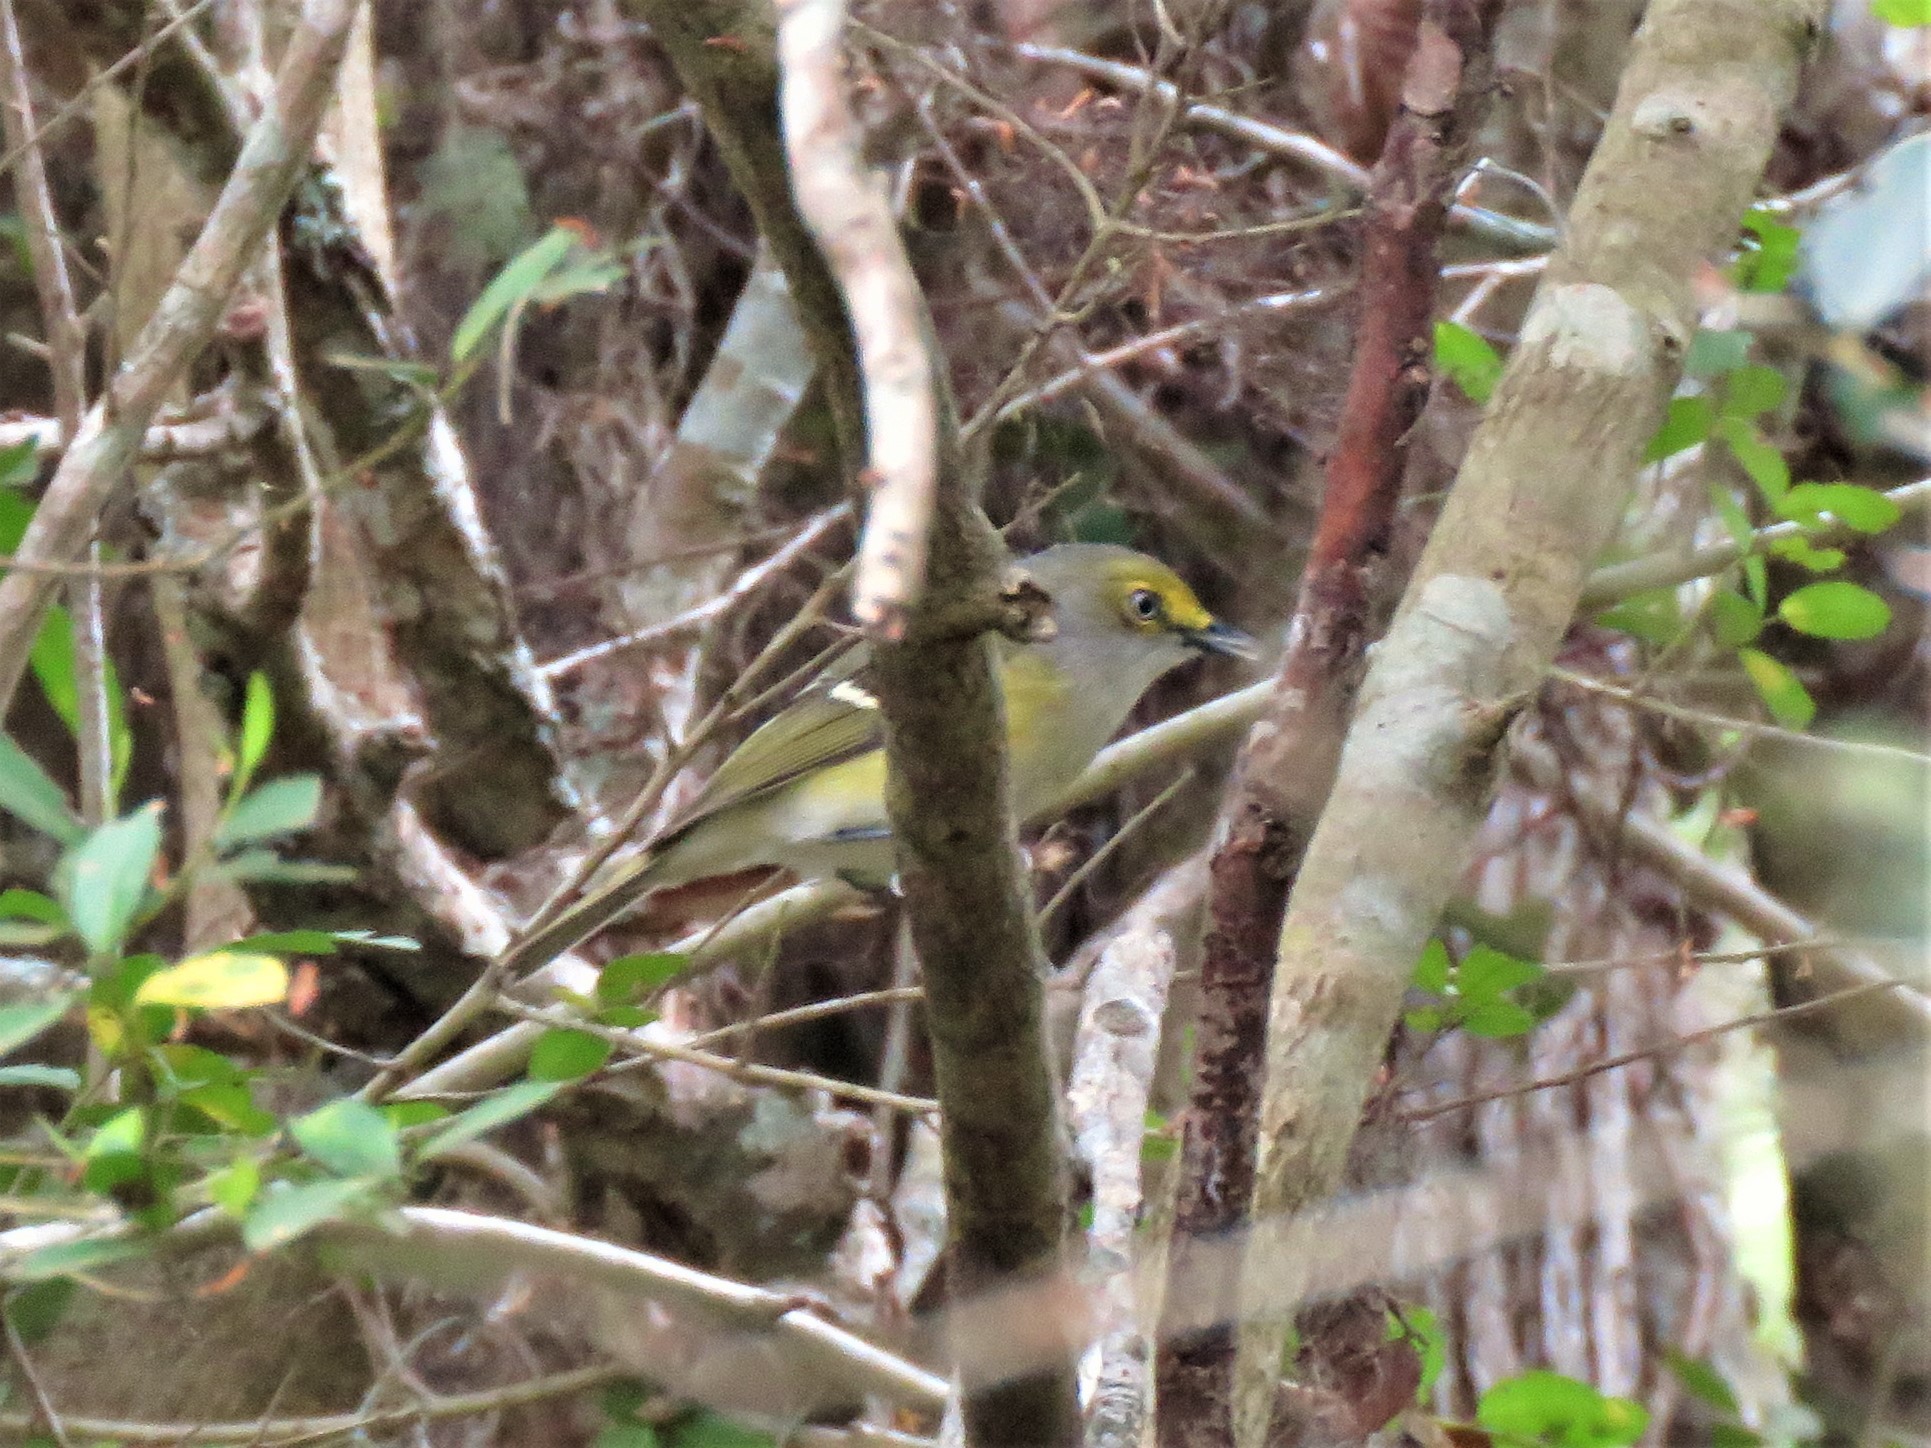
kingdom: Animalia
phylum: Chordata
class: Aves
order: Passeriformes
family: Vireonidae
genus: Vireo
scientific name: Vireo griseus
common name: White-eyed vireo
